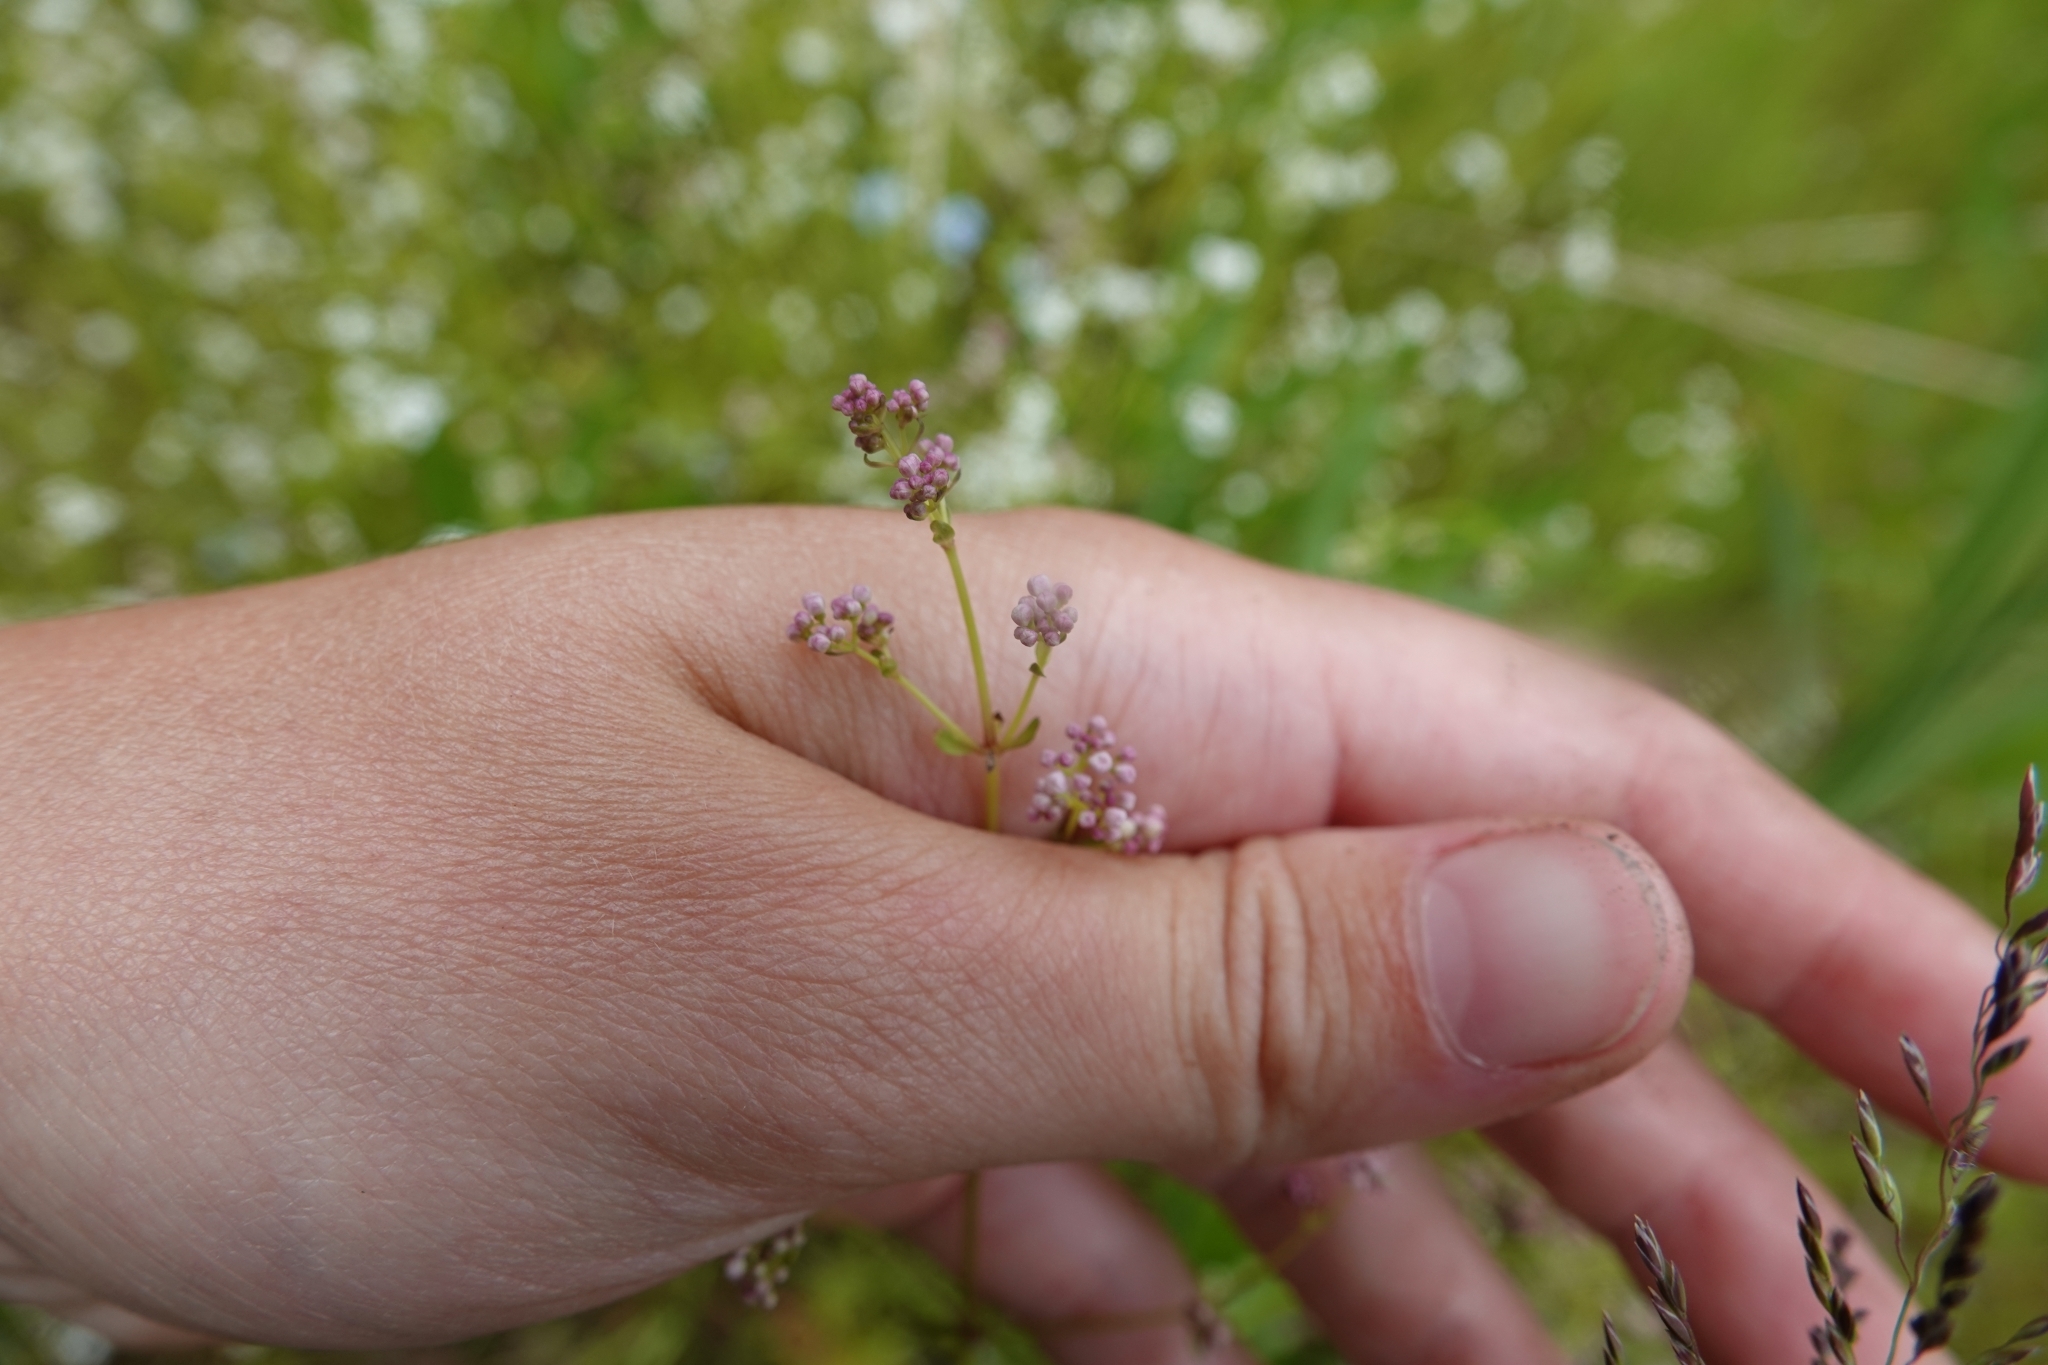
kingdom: Plantae
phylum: Tracheophyta
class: Magnoliopsida
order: Gentianales
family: Rubiaceae
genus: Galium
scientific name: Galium palustre
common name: Common marsh-bedstraw
